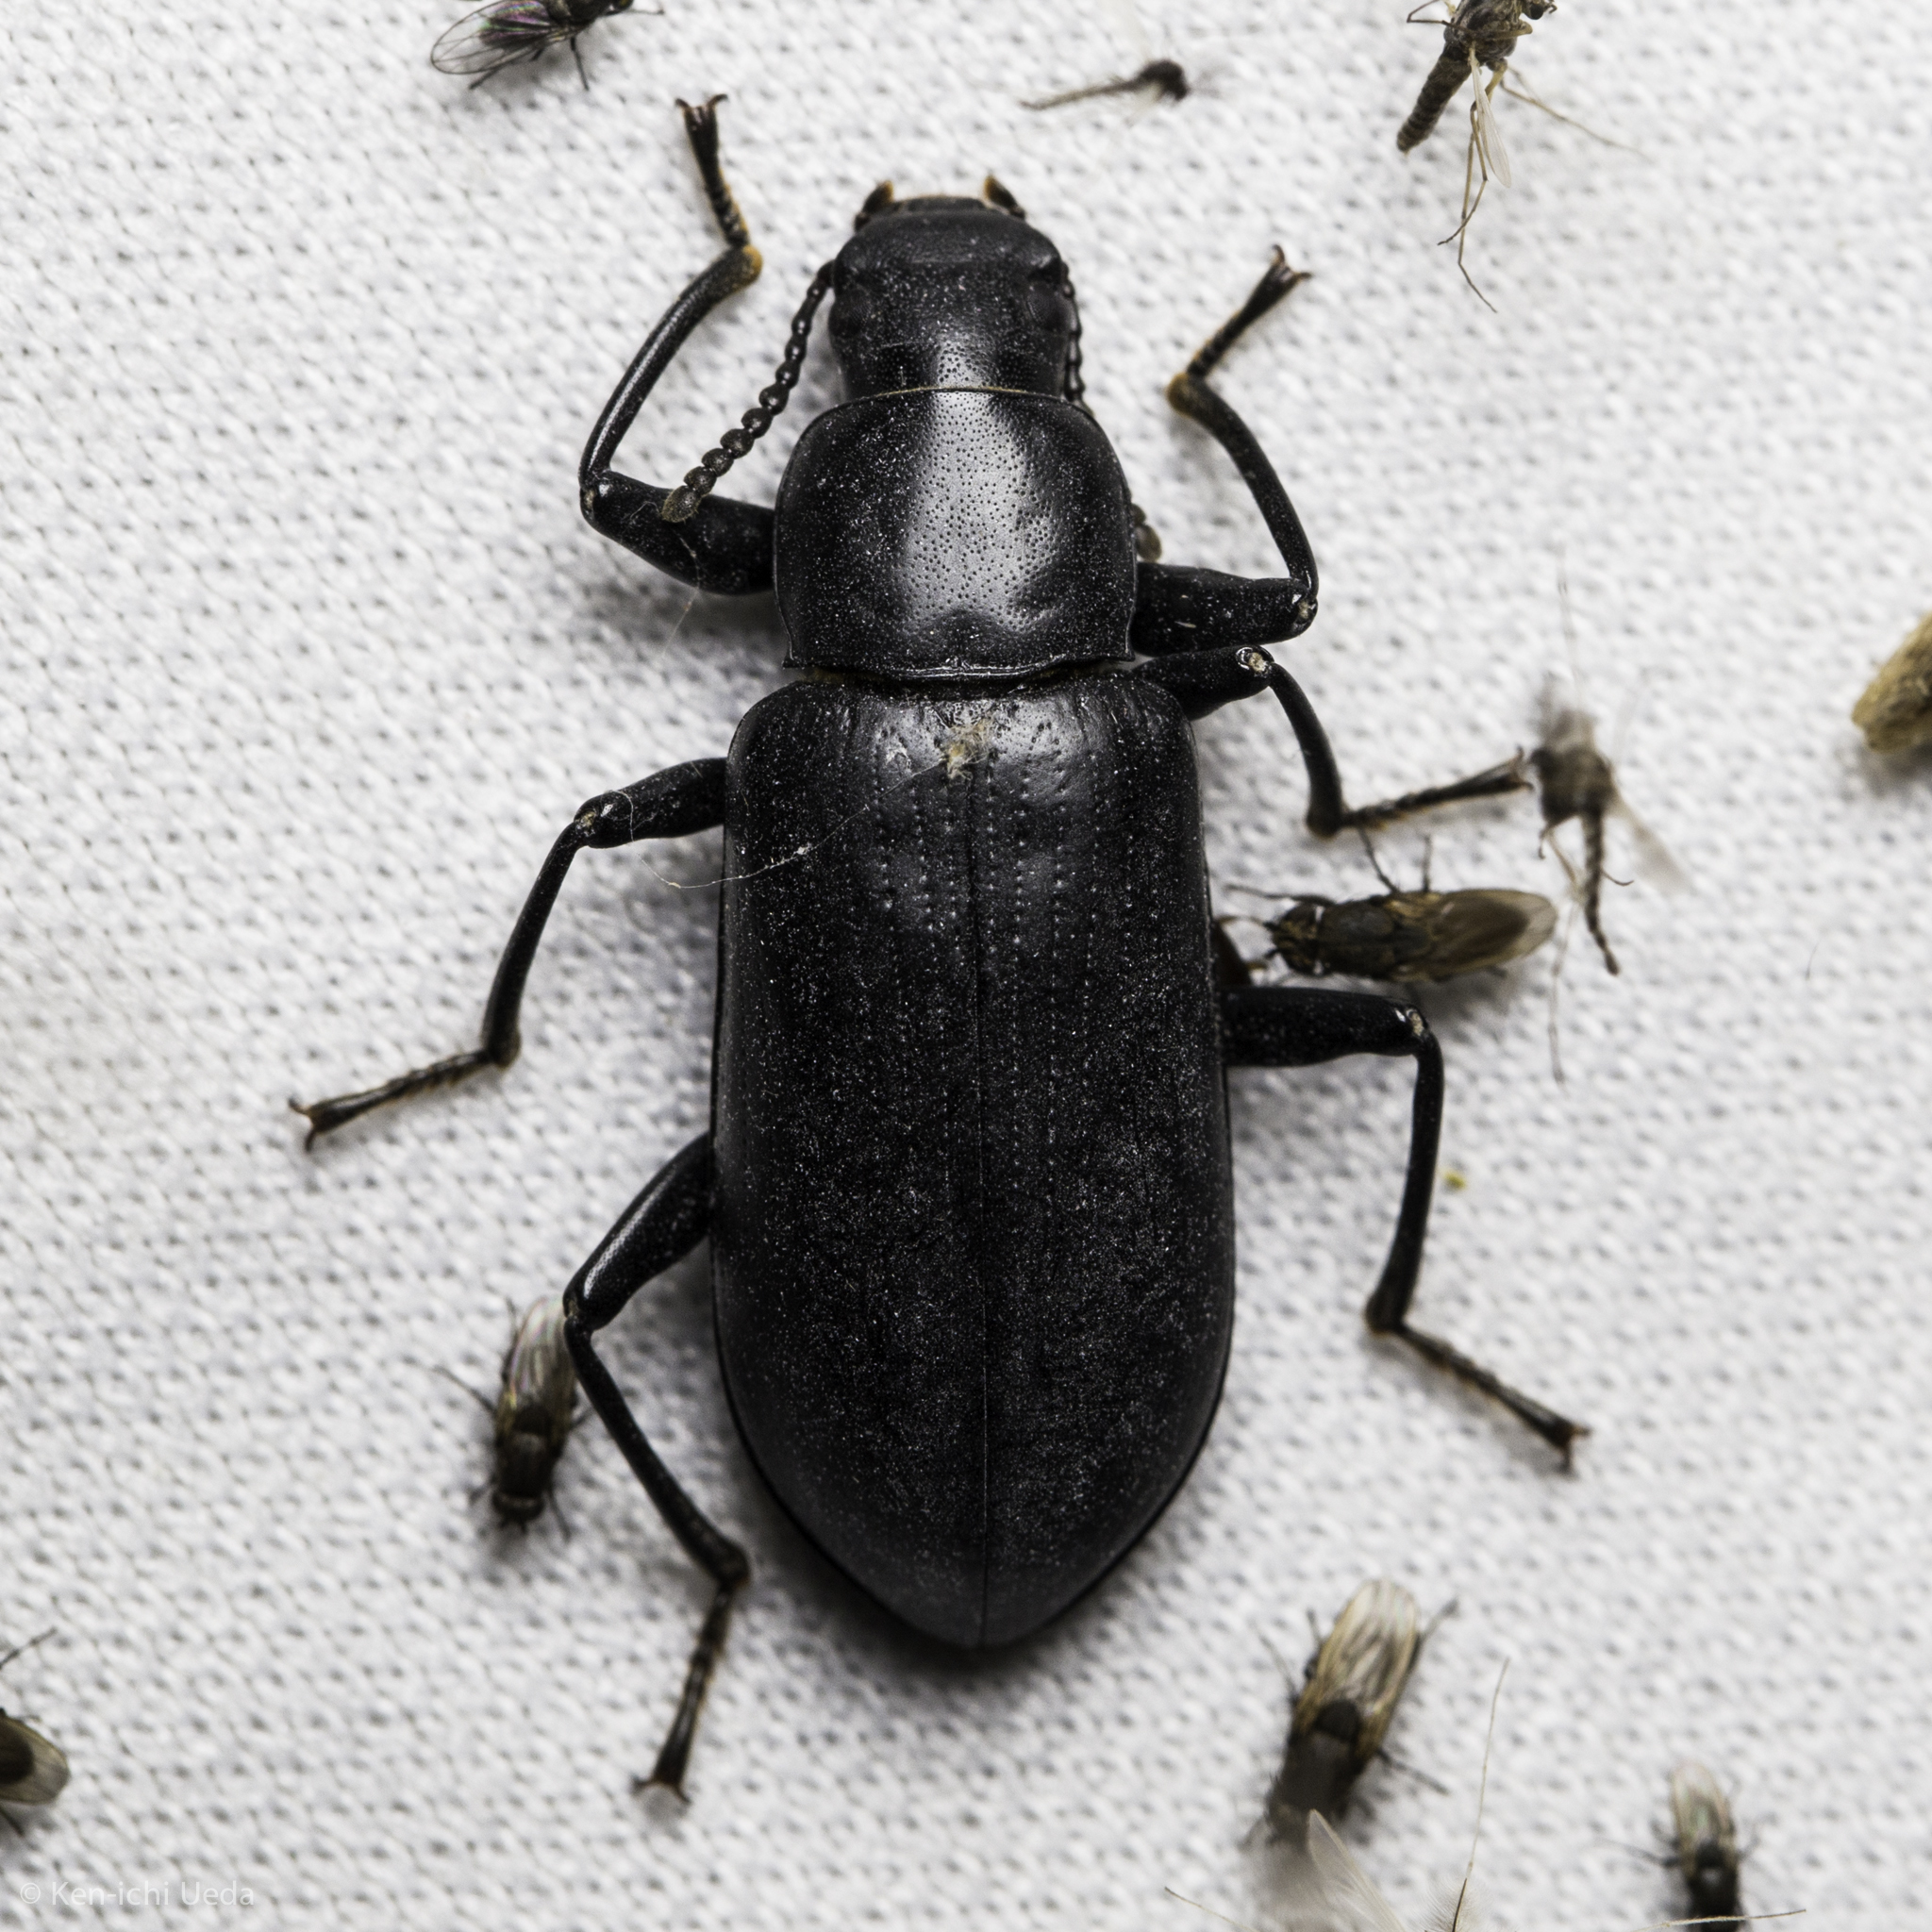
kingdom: Animalia
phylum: Arthropoda
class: Insecta
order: Coleoptera
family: Tenebrionidae
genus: Alobates
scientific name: Alobates pensylvanicus
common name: False mealworm beetle
